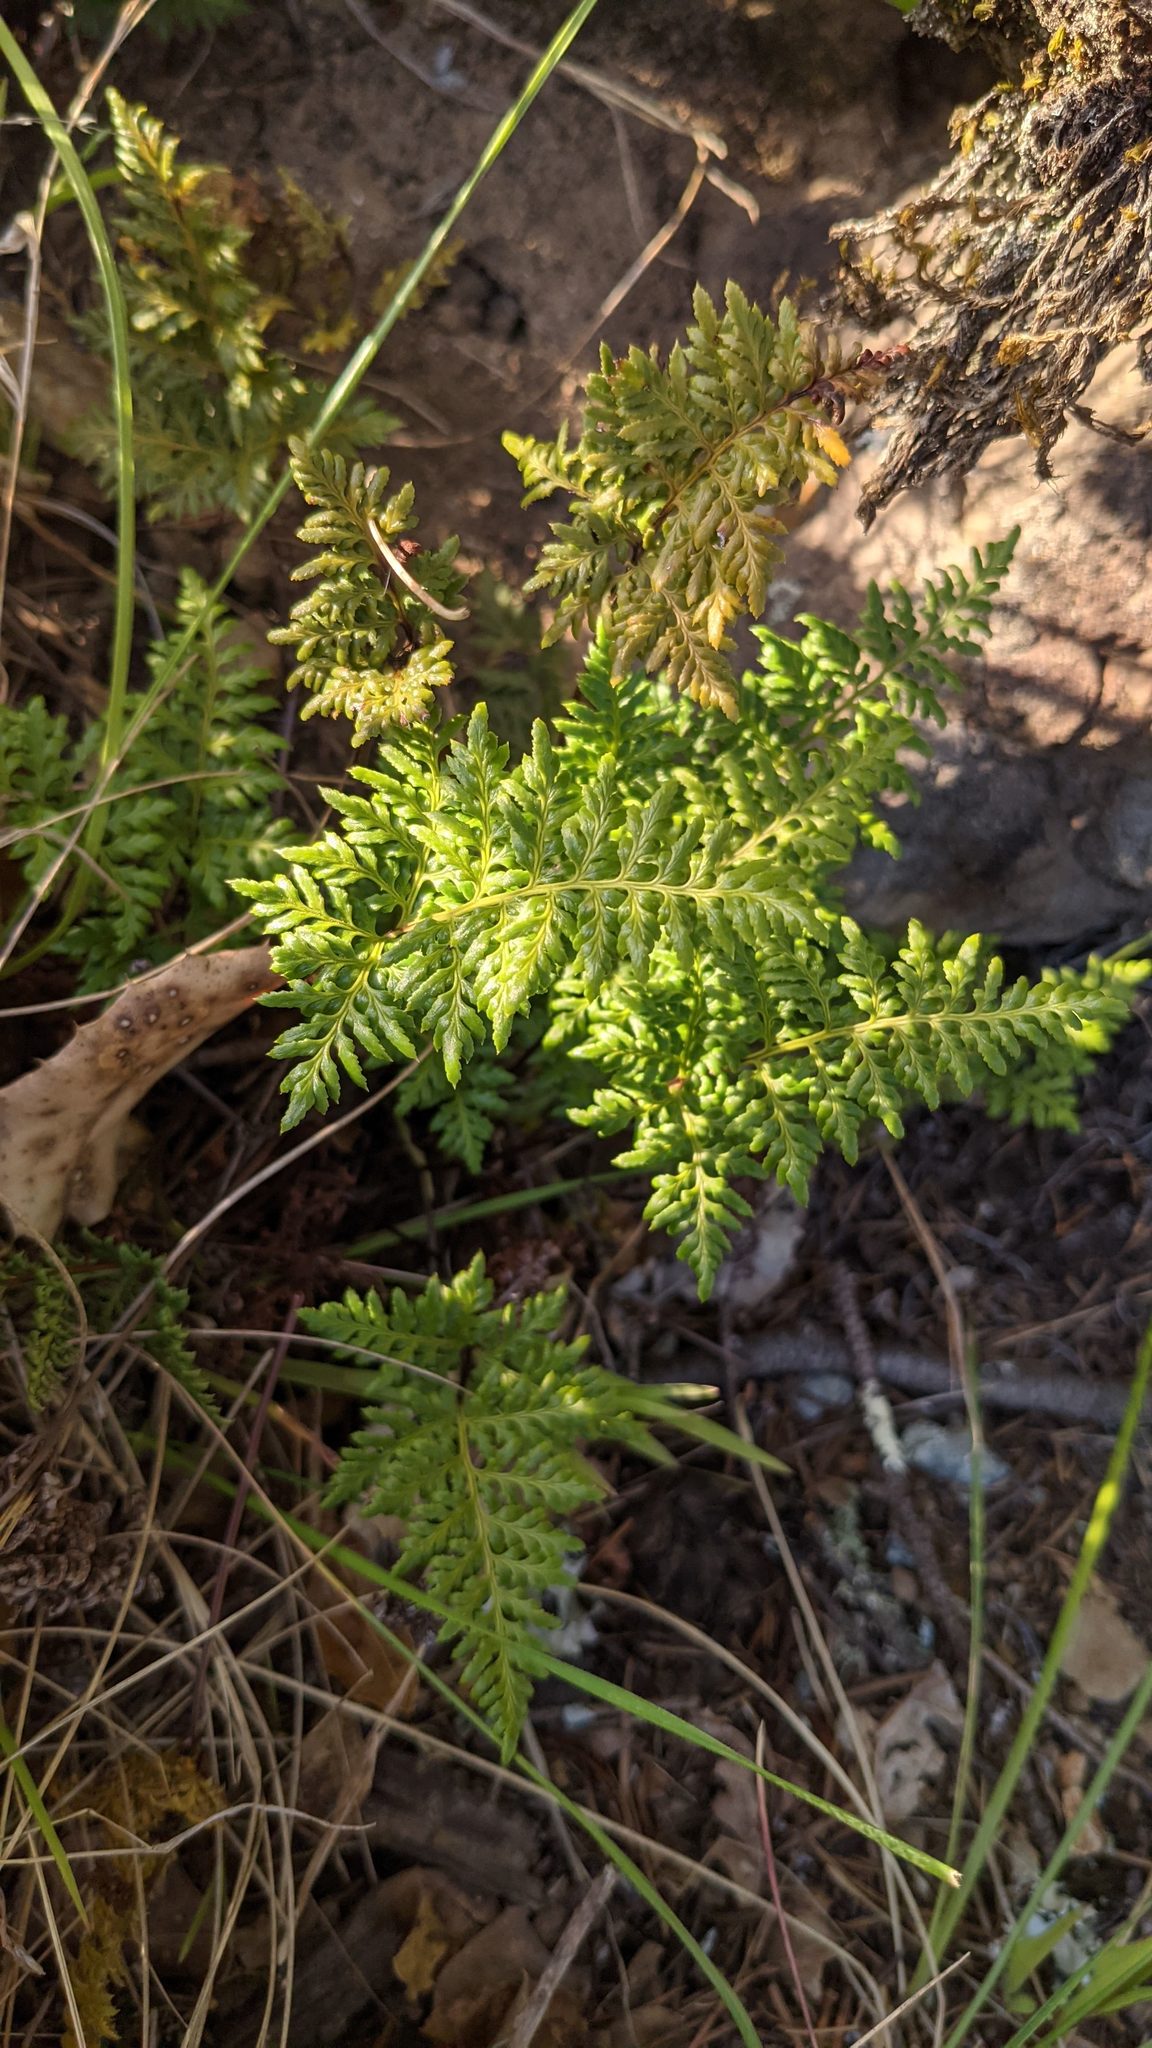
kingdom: Plantae
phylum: Tracheophyta
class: Polypodiopsida
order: Polypodiales
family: Pteridaceae
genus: Aspidotis
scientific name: Aspidotis carlotta-halliae
